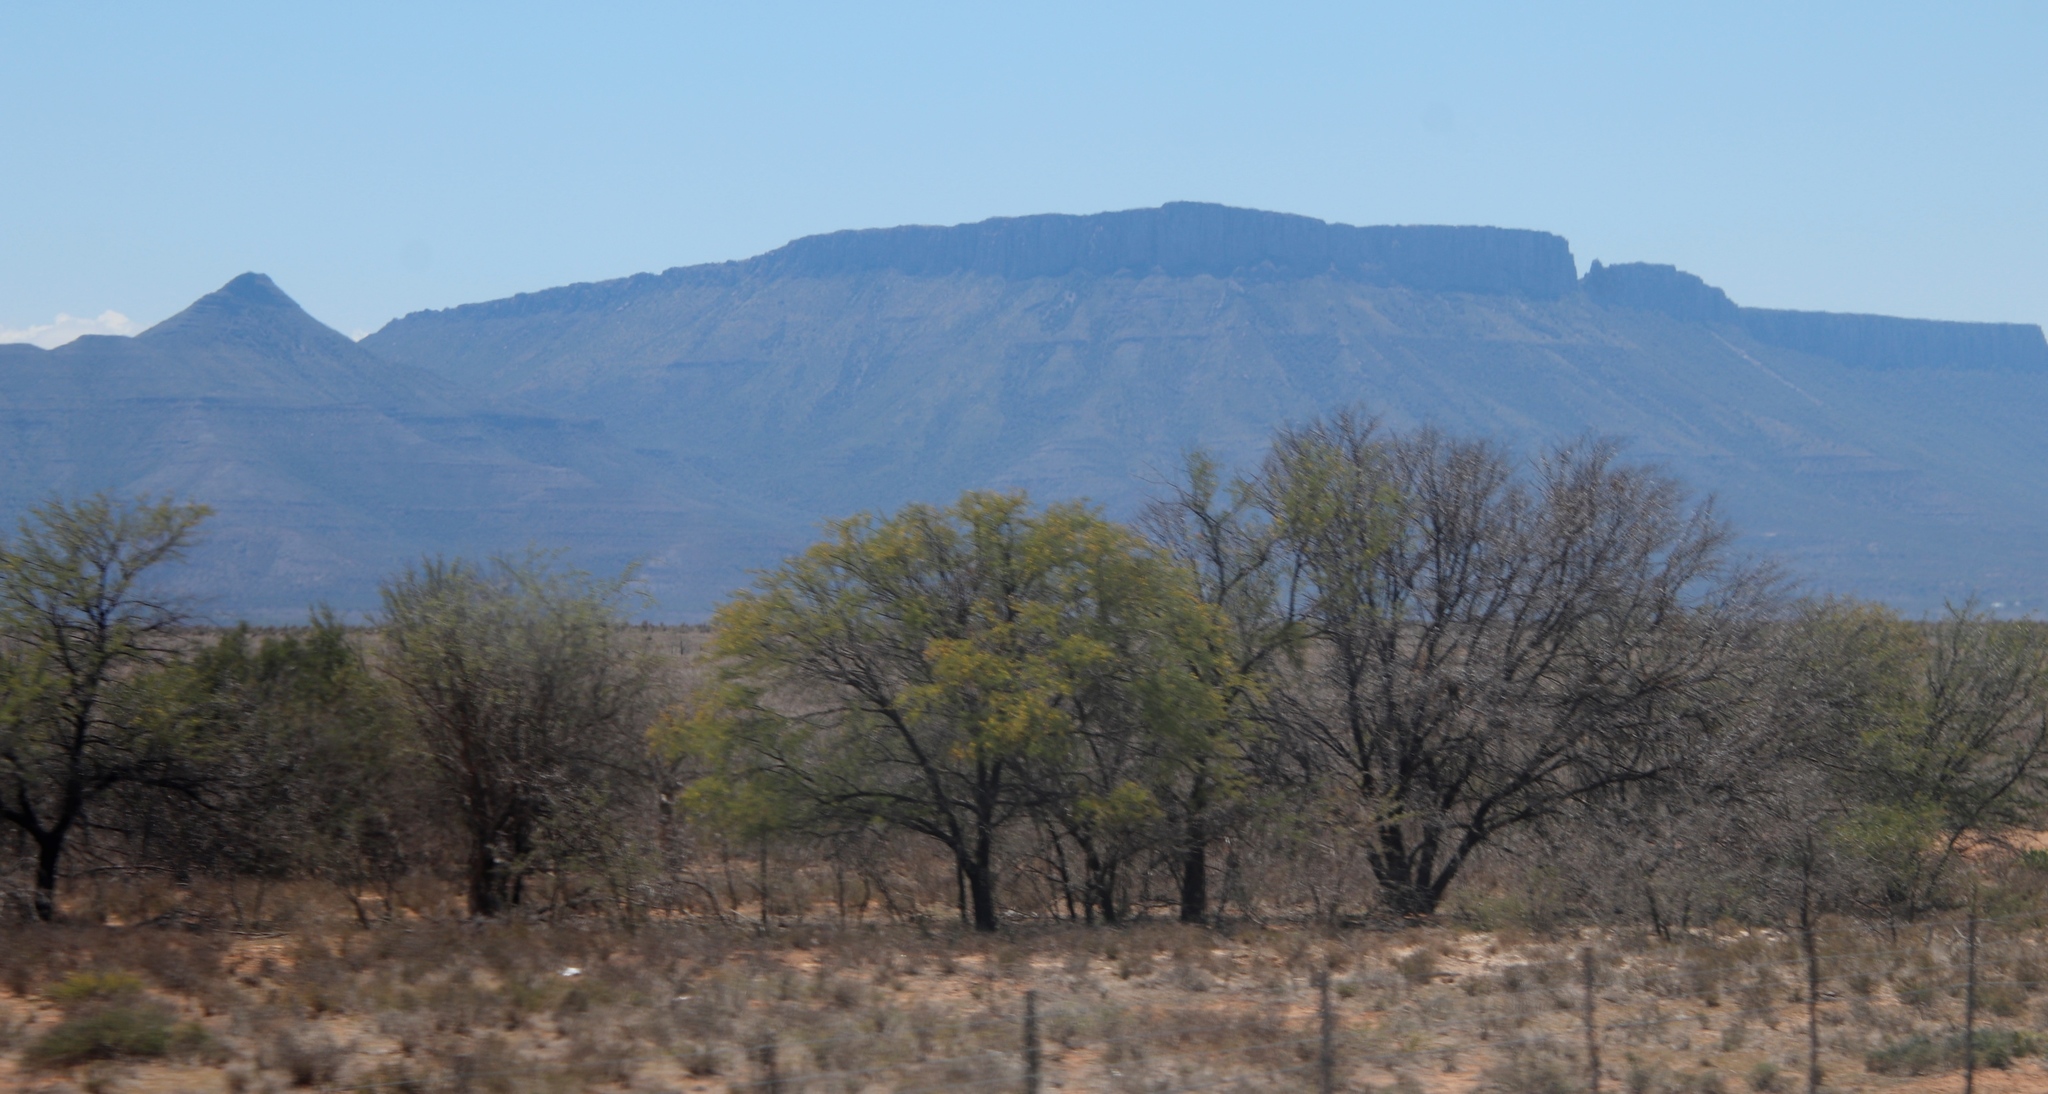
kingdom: Plantae
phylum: Tracheophyta
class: Magnoliopsida
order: Fabales
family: Fabaceae
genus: Vachellia
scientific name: Vachellia karroo
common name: Sweet thorn
